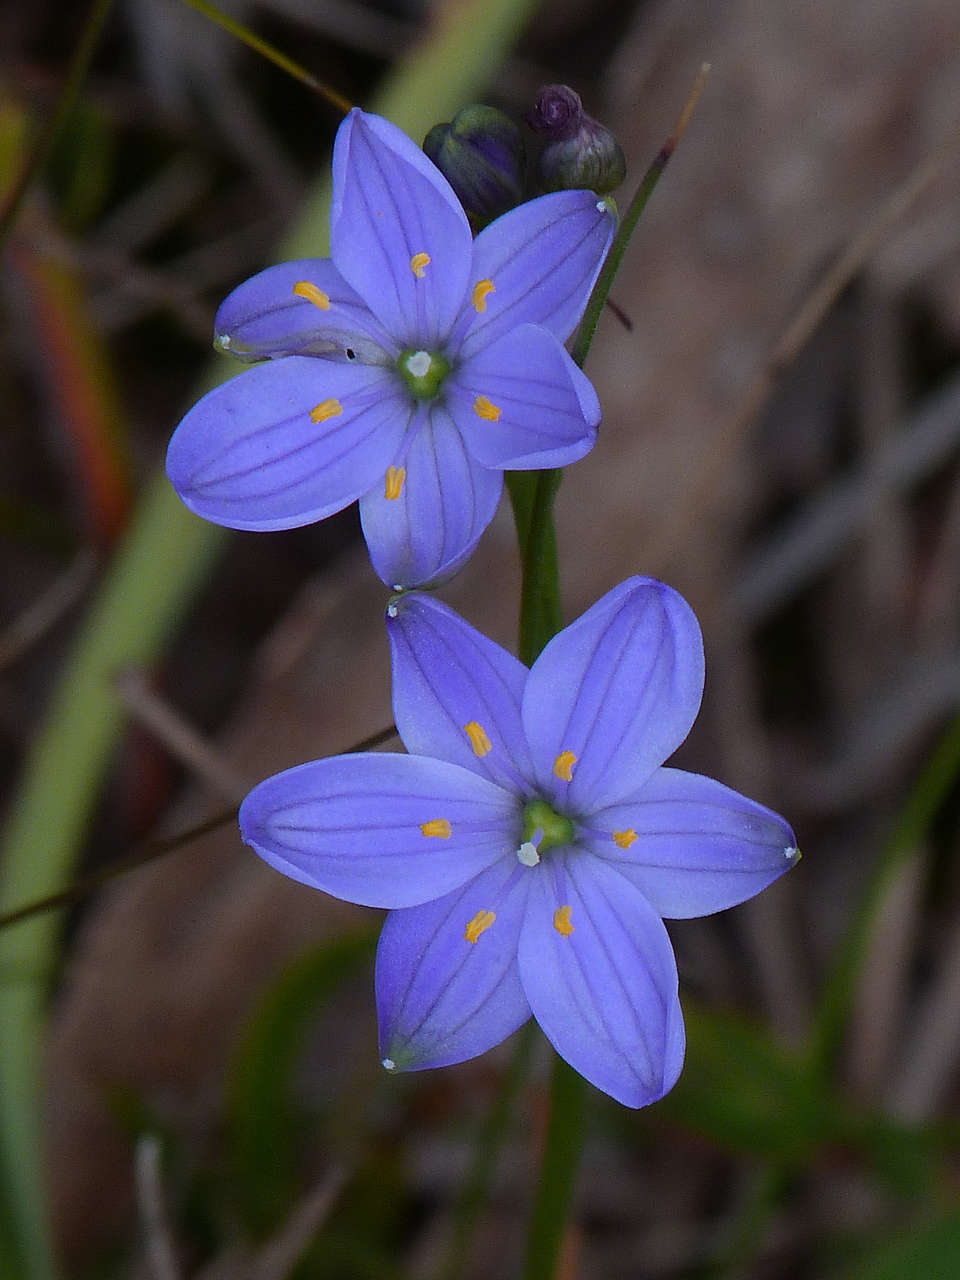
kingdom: Plantae
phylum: Tracheophyta
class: Liliopsida
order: Asparagales
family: Asphodelaceae
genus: Chamaescilla
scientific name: Chamaescilla corymbosa
